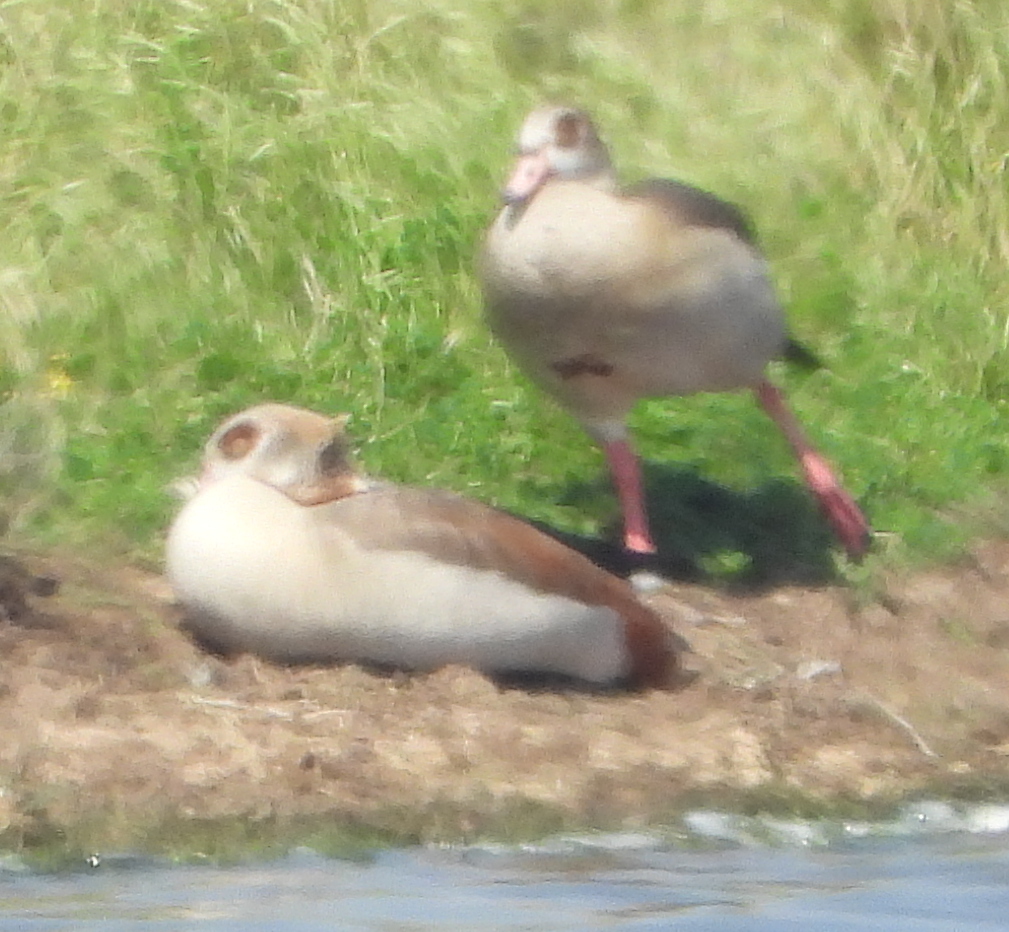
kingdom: Animalia
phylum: Chordata
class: Aves
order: Anseriformes
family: Anatidae
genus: Alopochen
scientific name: Alopochen aegyptiaca
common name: Egyptian goose
